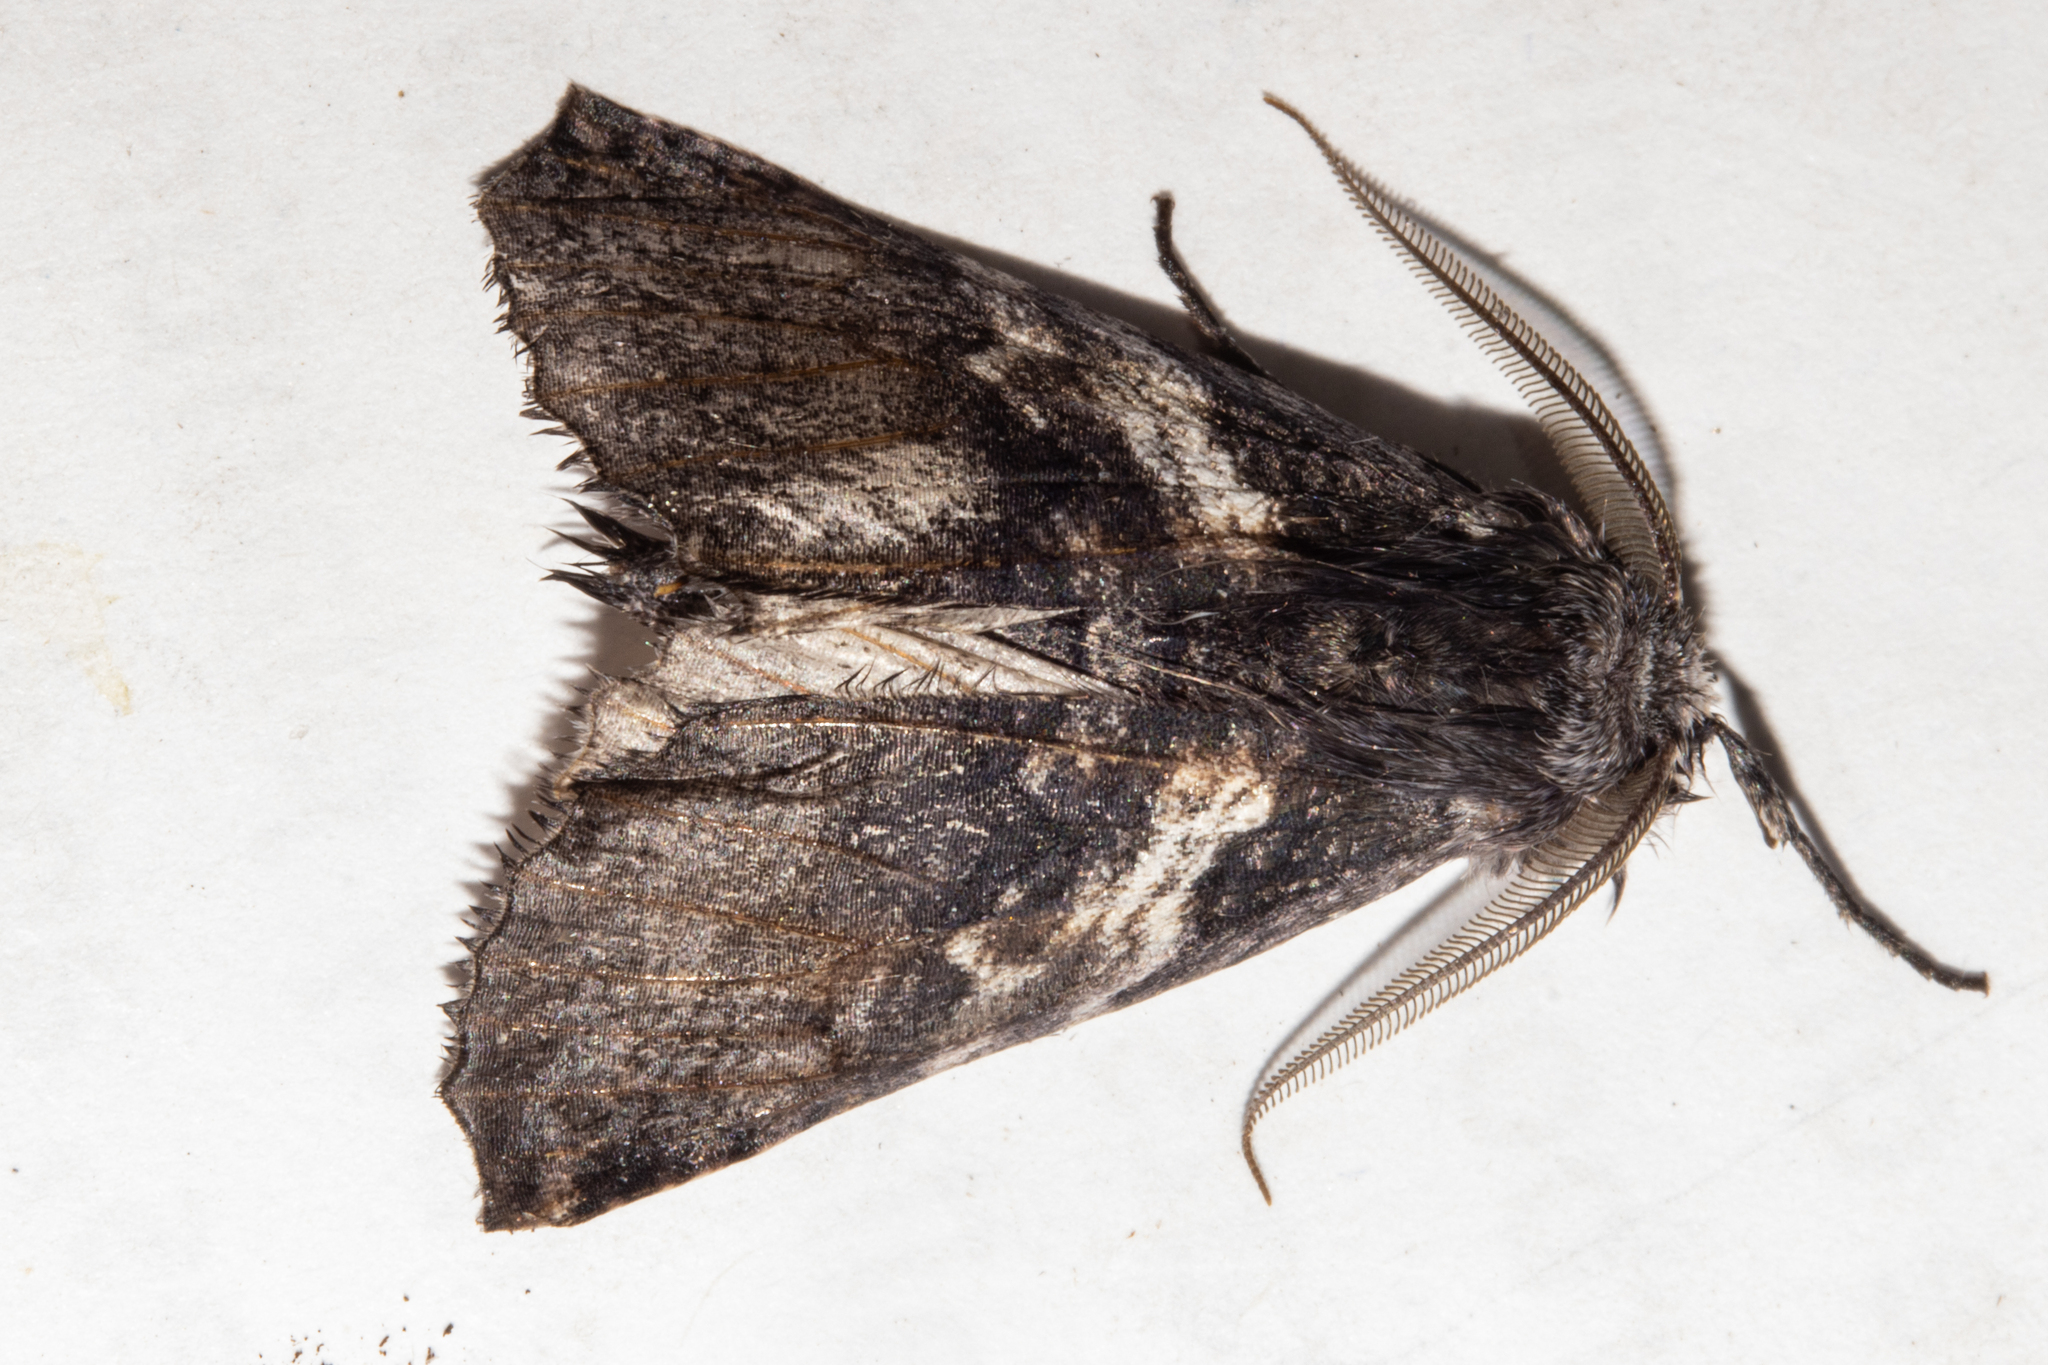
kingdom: Animalia
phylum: Arthropoda
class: Insecta
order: Lepidoptera
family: Geometridae
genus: Declana
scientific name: Declana
